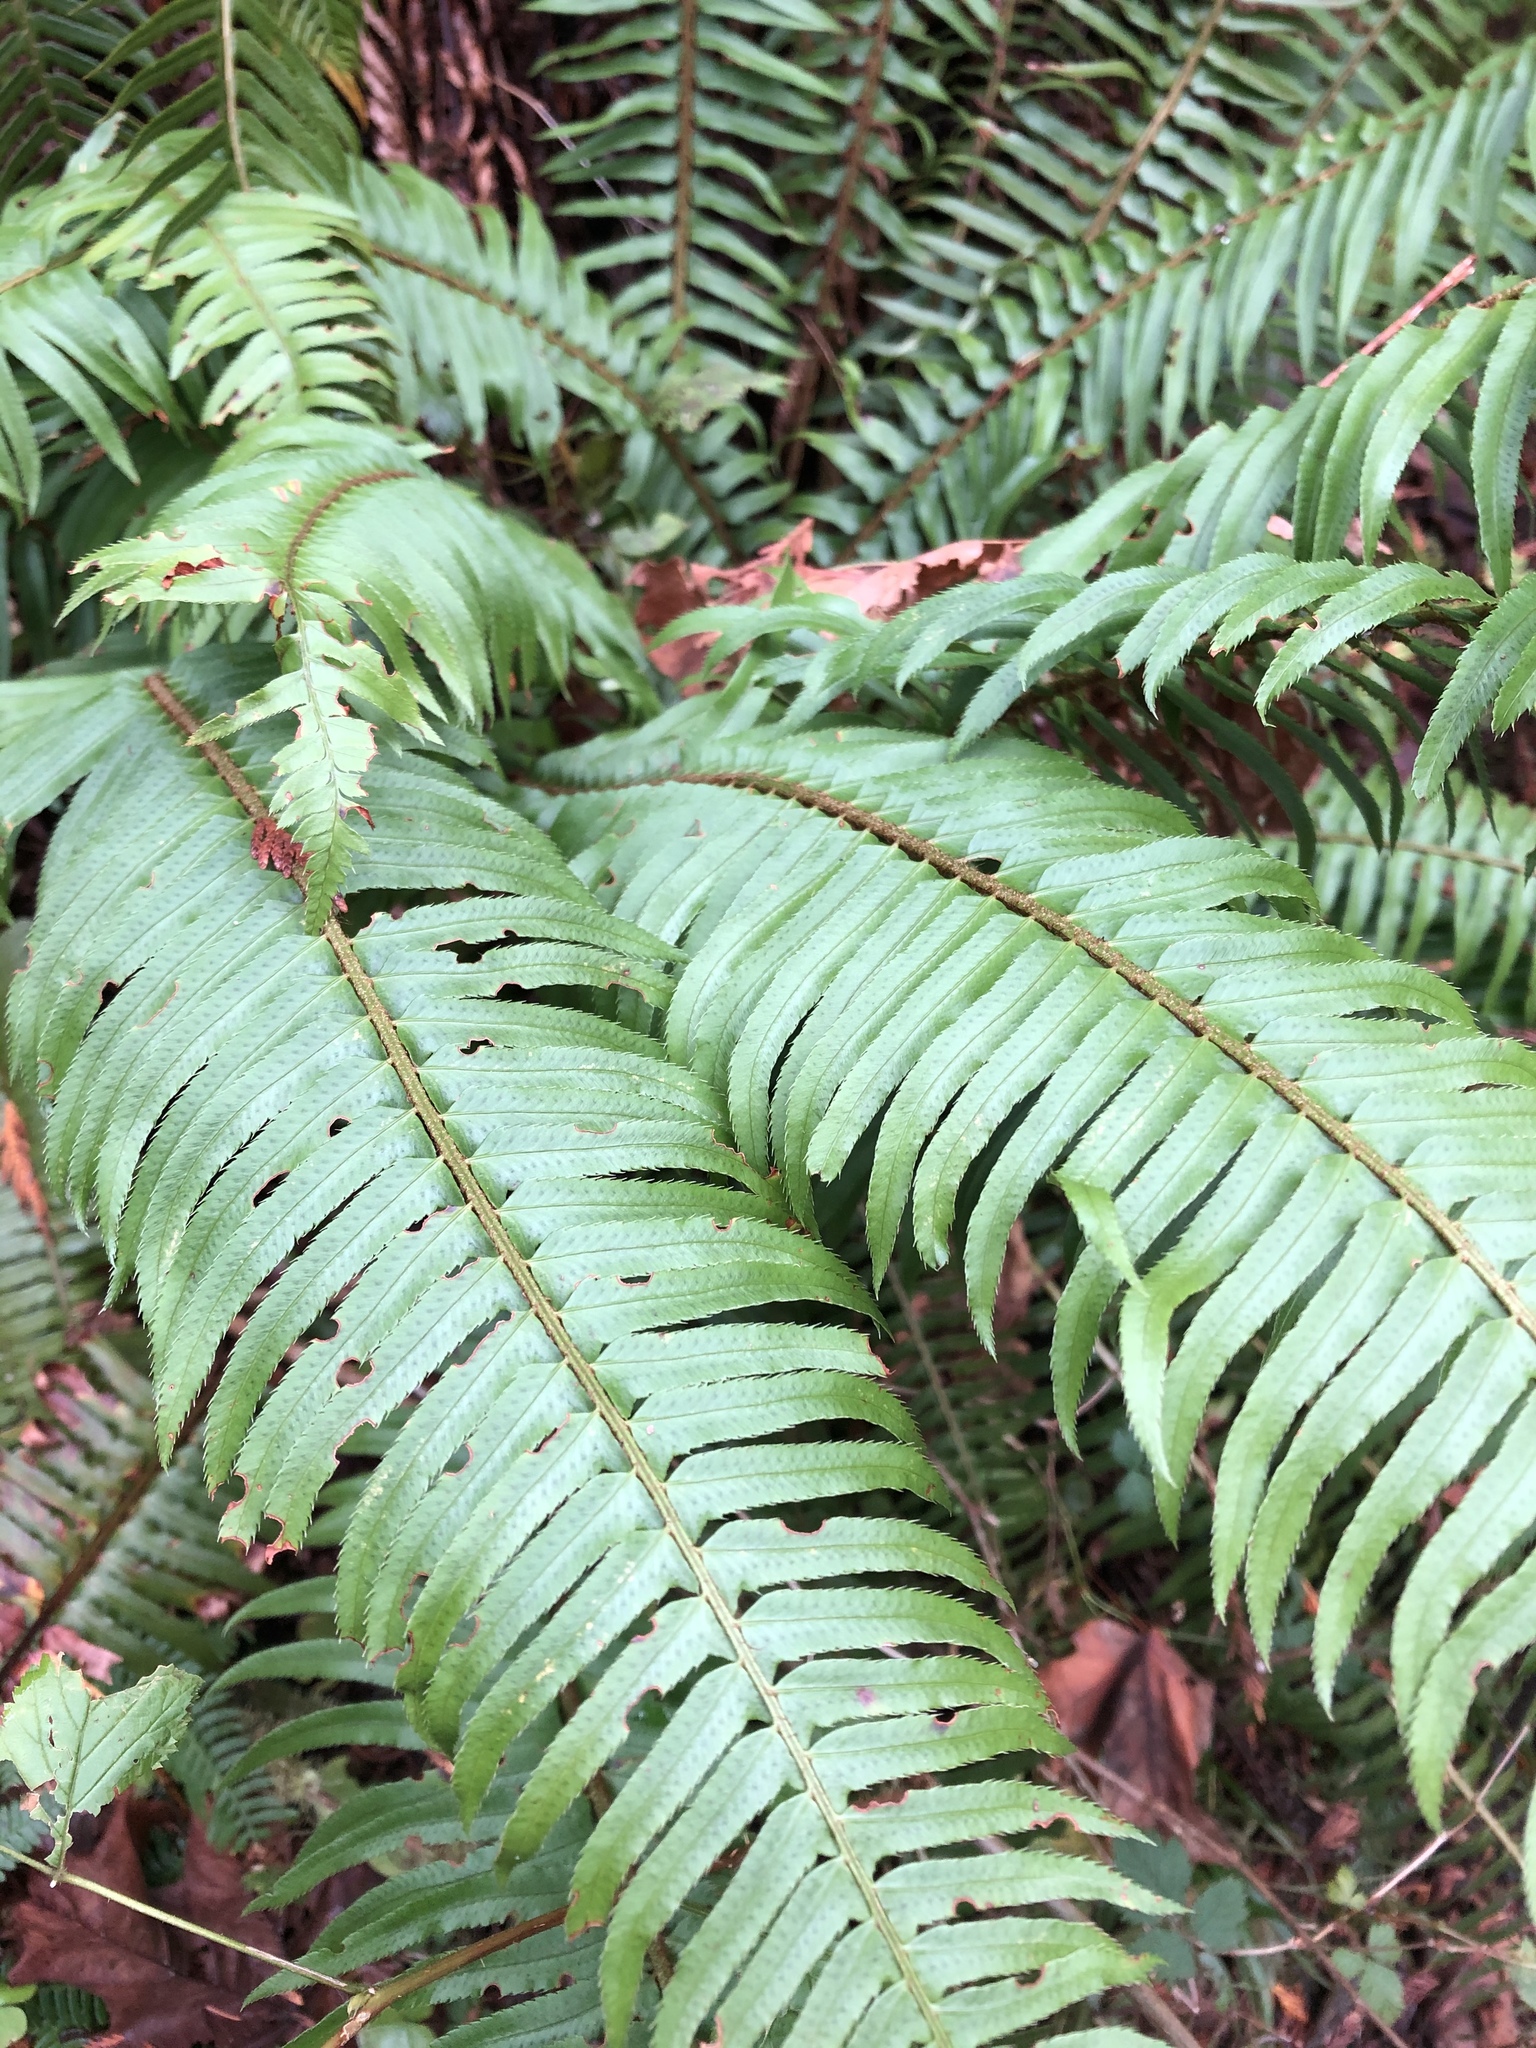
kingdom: Plantae
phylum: Tracheophyta
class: Polypodiopsida
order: Polypodiales
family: Dryopteridaceae
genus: Polystichum
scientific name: Polystichum munitum
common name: Western sword-fern
